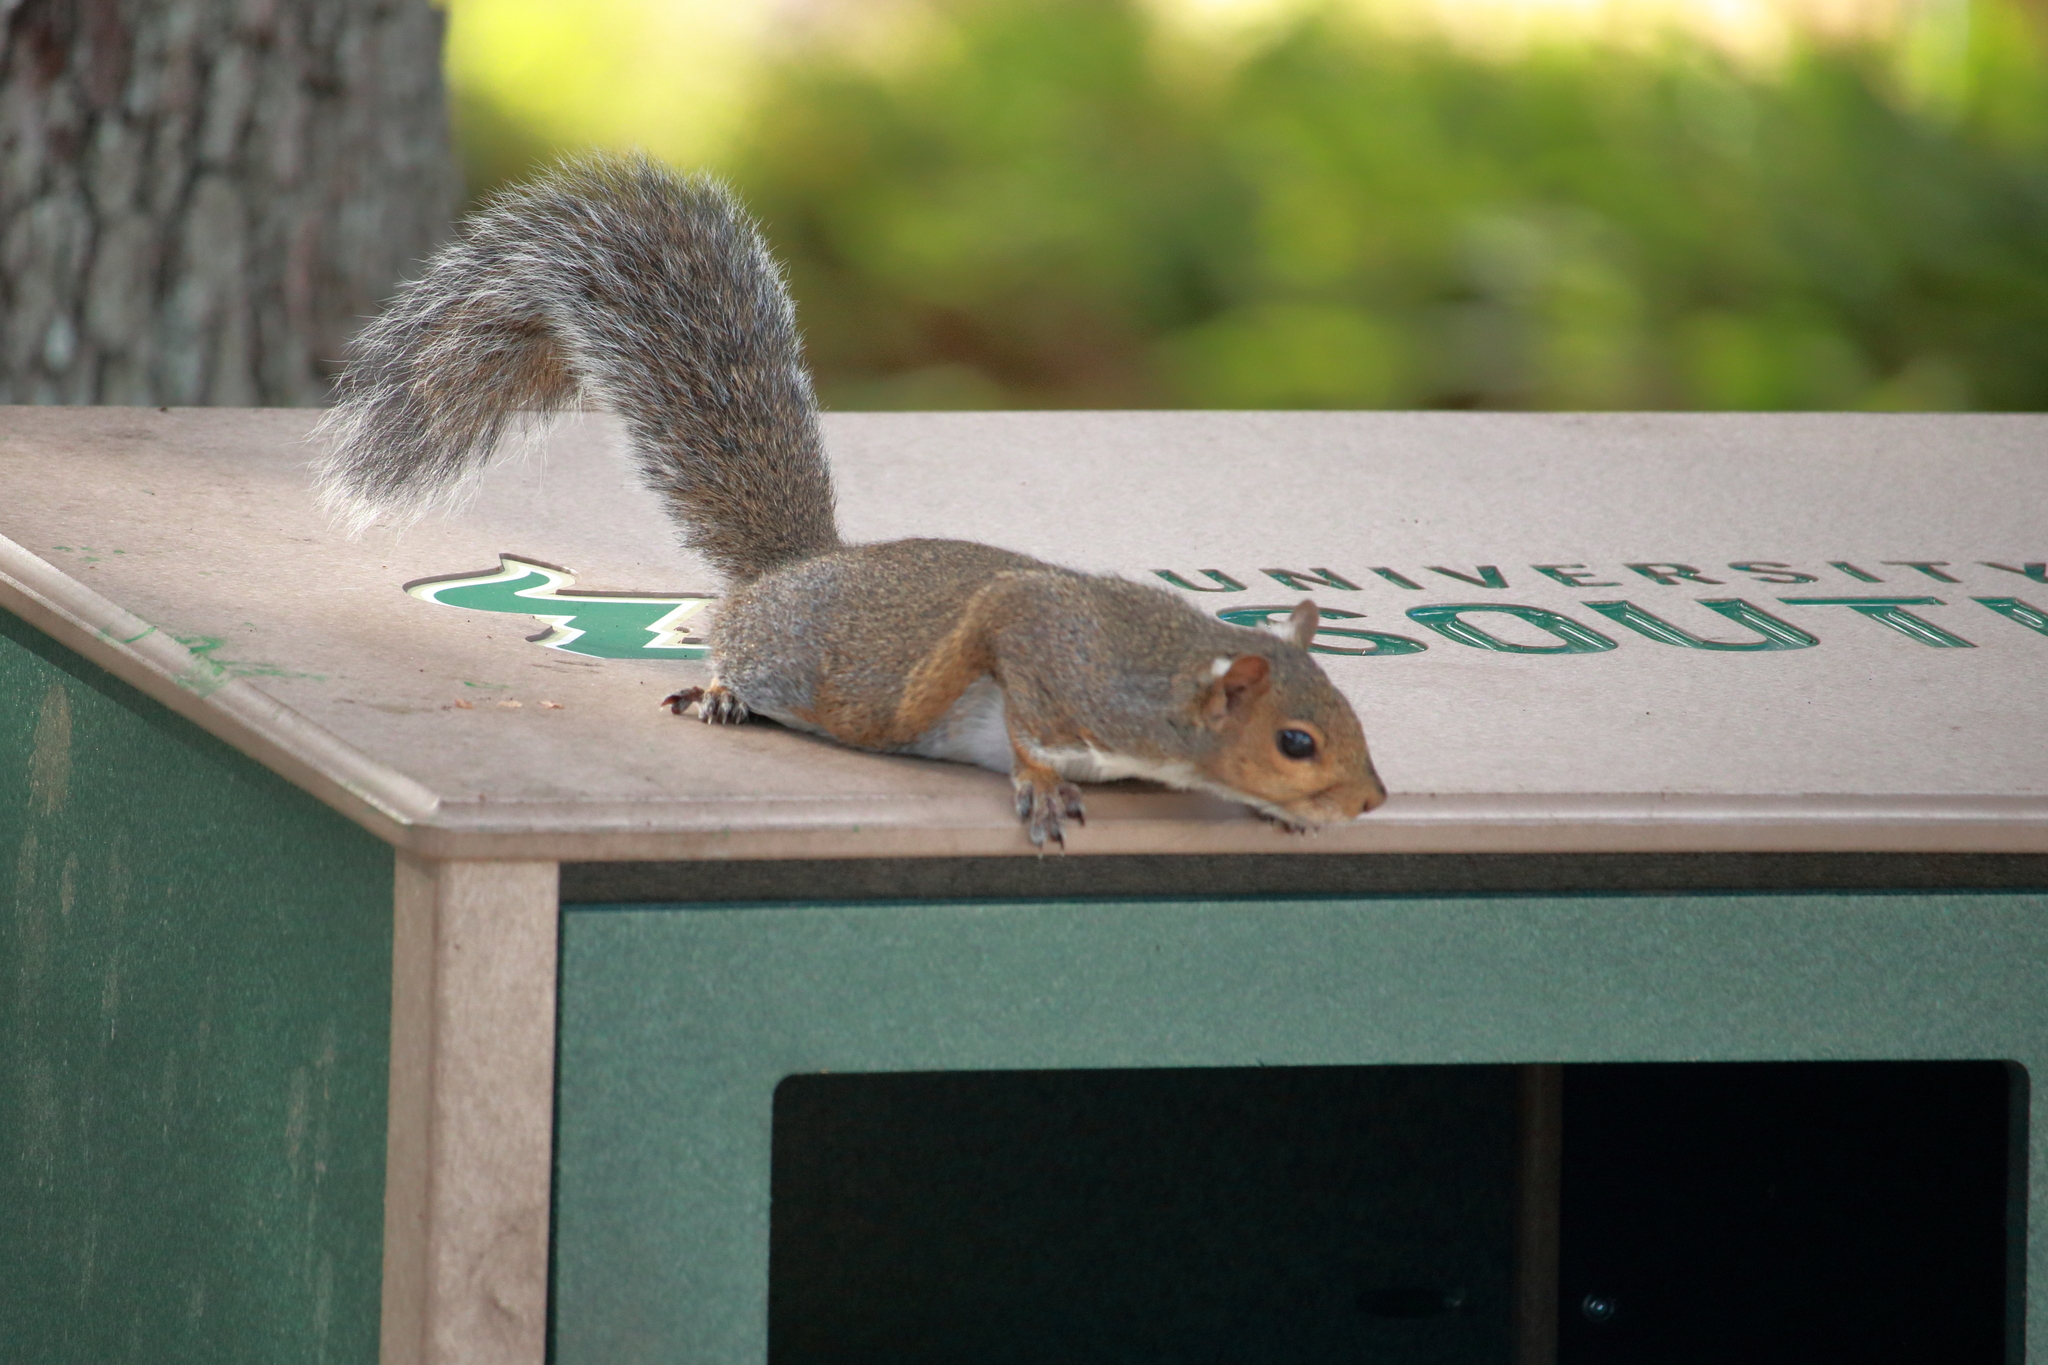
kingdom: Animalia
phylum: Chordata
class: Mammalia
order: Rodentia
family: Sciuridae
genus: Sciurus
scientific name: Sciurus carolinensis
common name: Eastern gray squirrel
